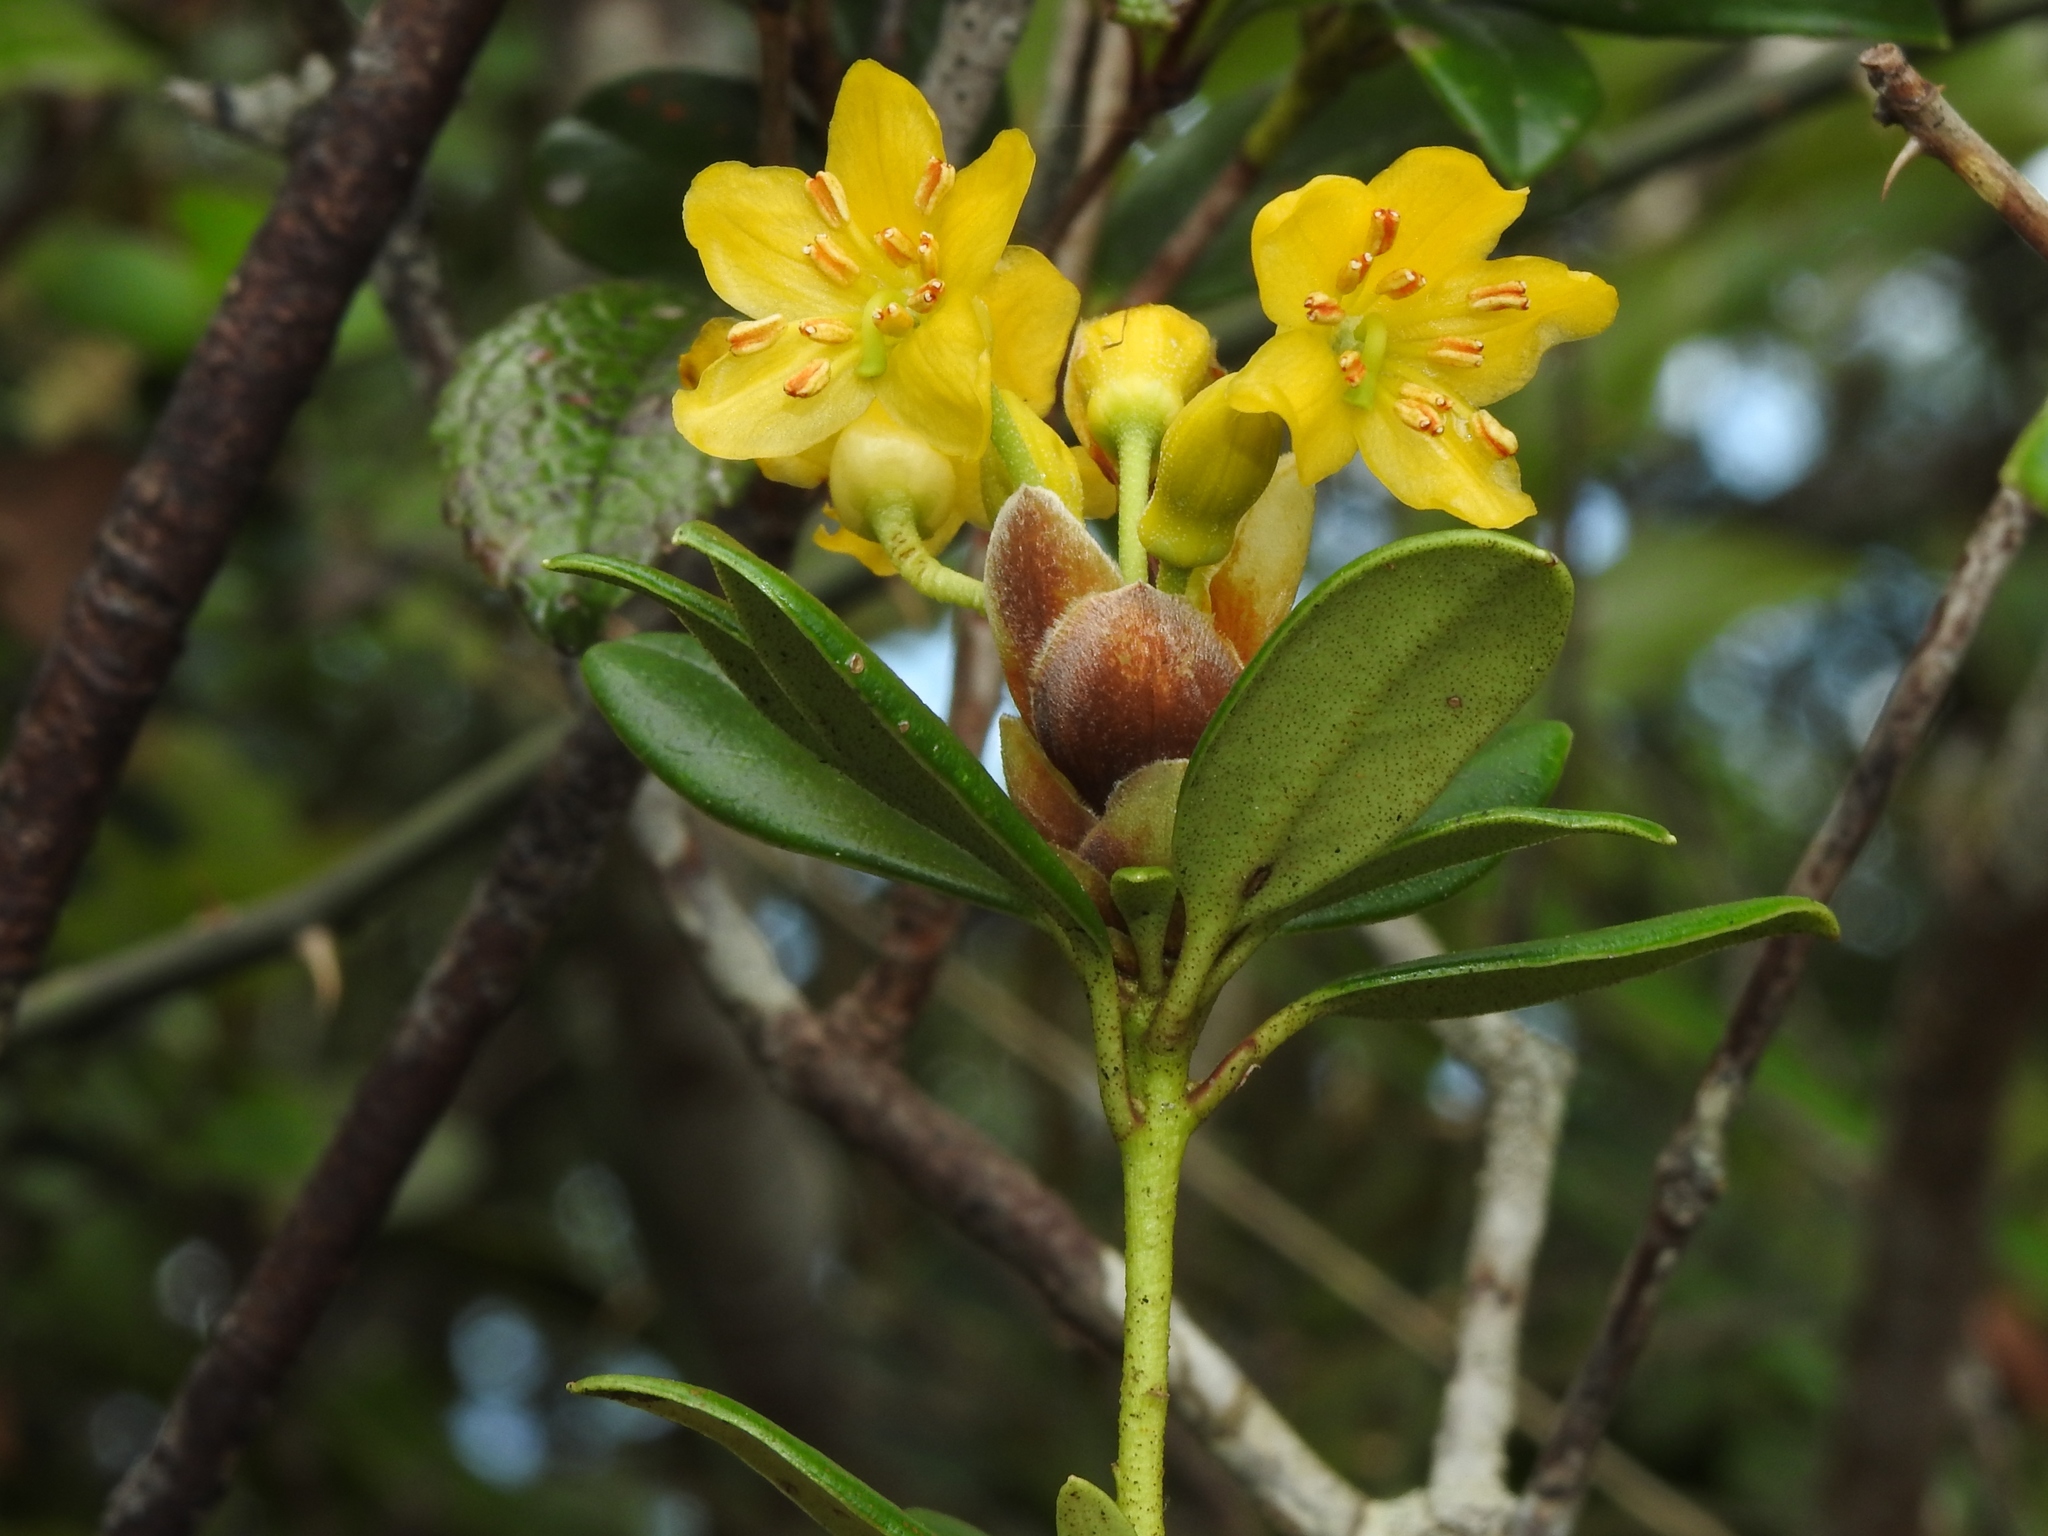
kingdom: Plantae
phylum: Tracheophyta
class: Magnoliopsida
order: Ericales
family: Ericaceae
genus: Rhododendron
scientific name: Rhododendron kawakamii
